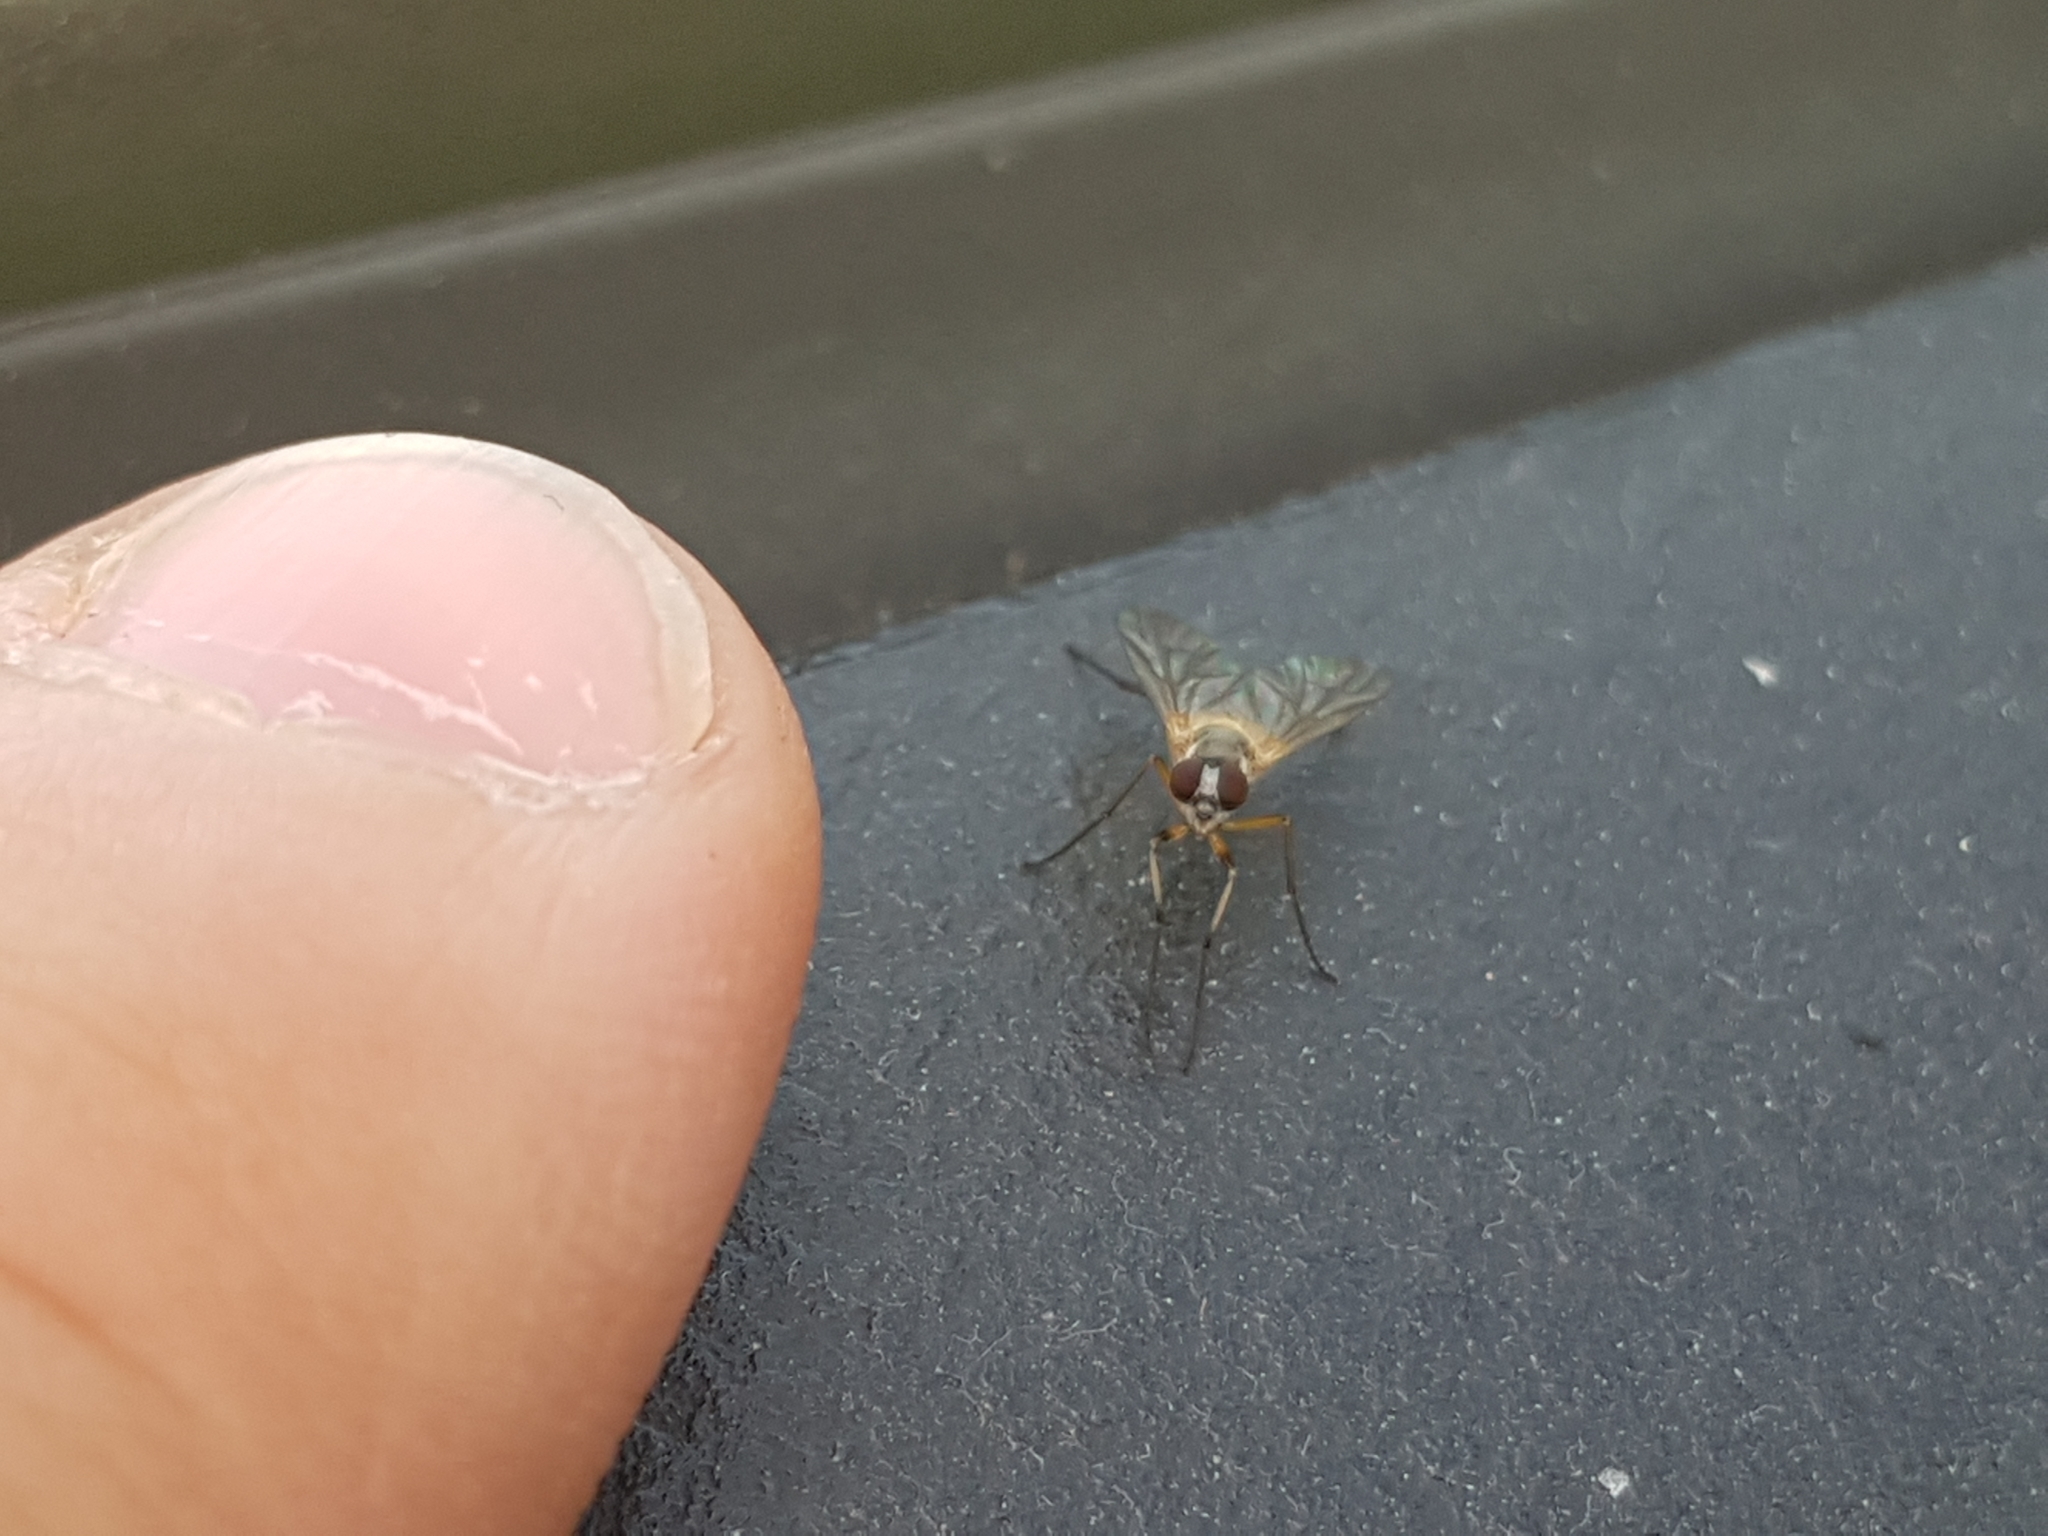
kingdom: Animalia
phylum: Arthropoda
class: Insecta
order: Diptera
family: Rhagionidae
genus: Rhagio
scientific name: Rhagio lineola
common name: Small fleck-winged snipefly
